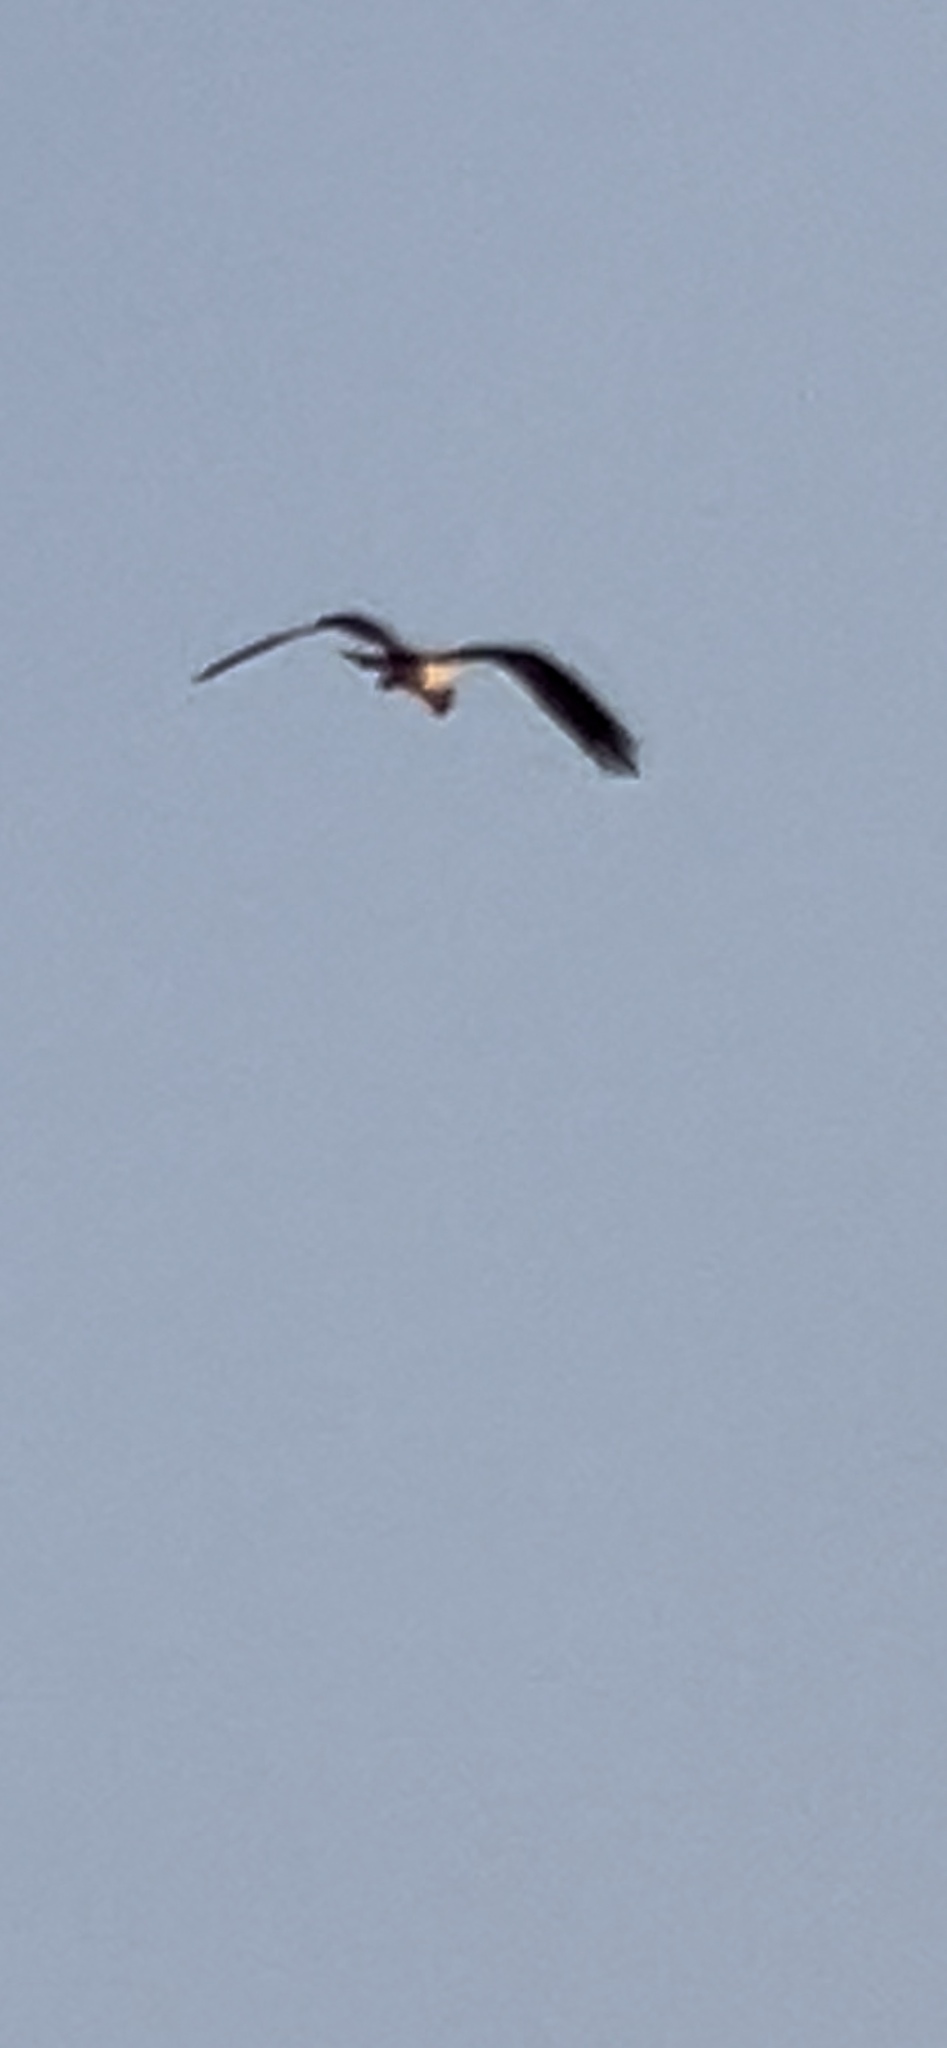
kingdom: Animalia
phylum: Chordata
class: Aves
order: Accipitriformes
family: Pandionidae
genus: Pandion
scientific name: Pandion haliaetus
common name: Osprey
